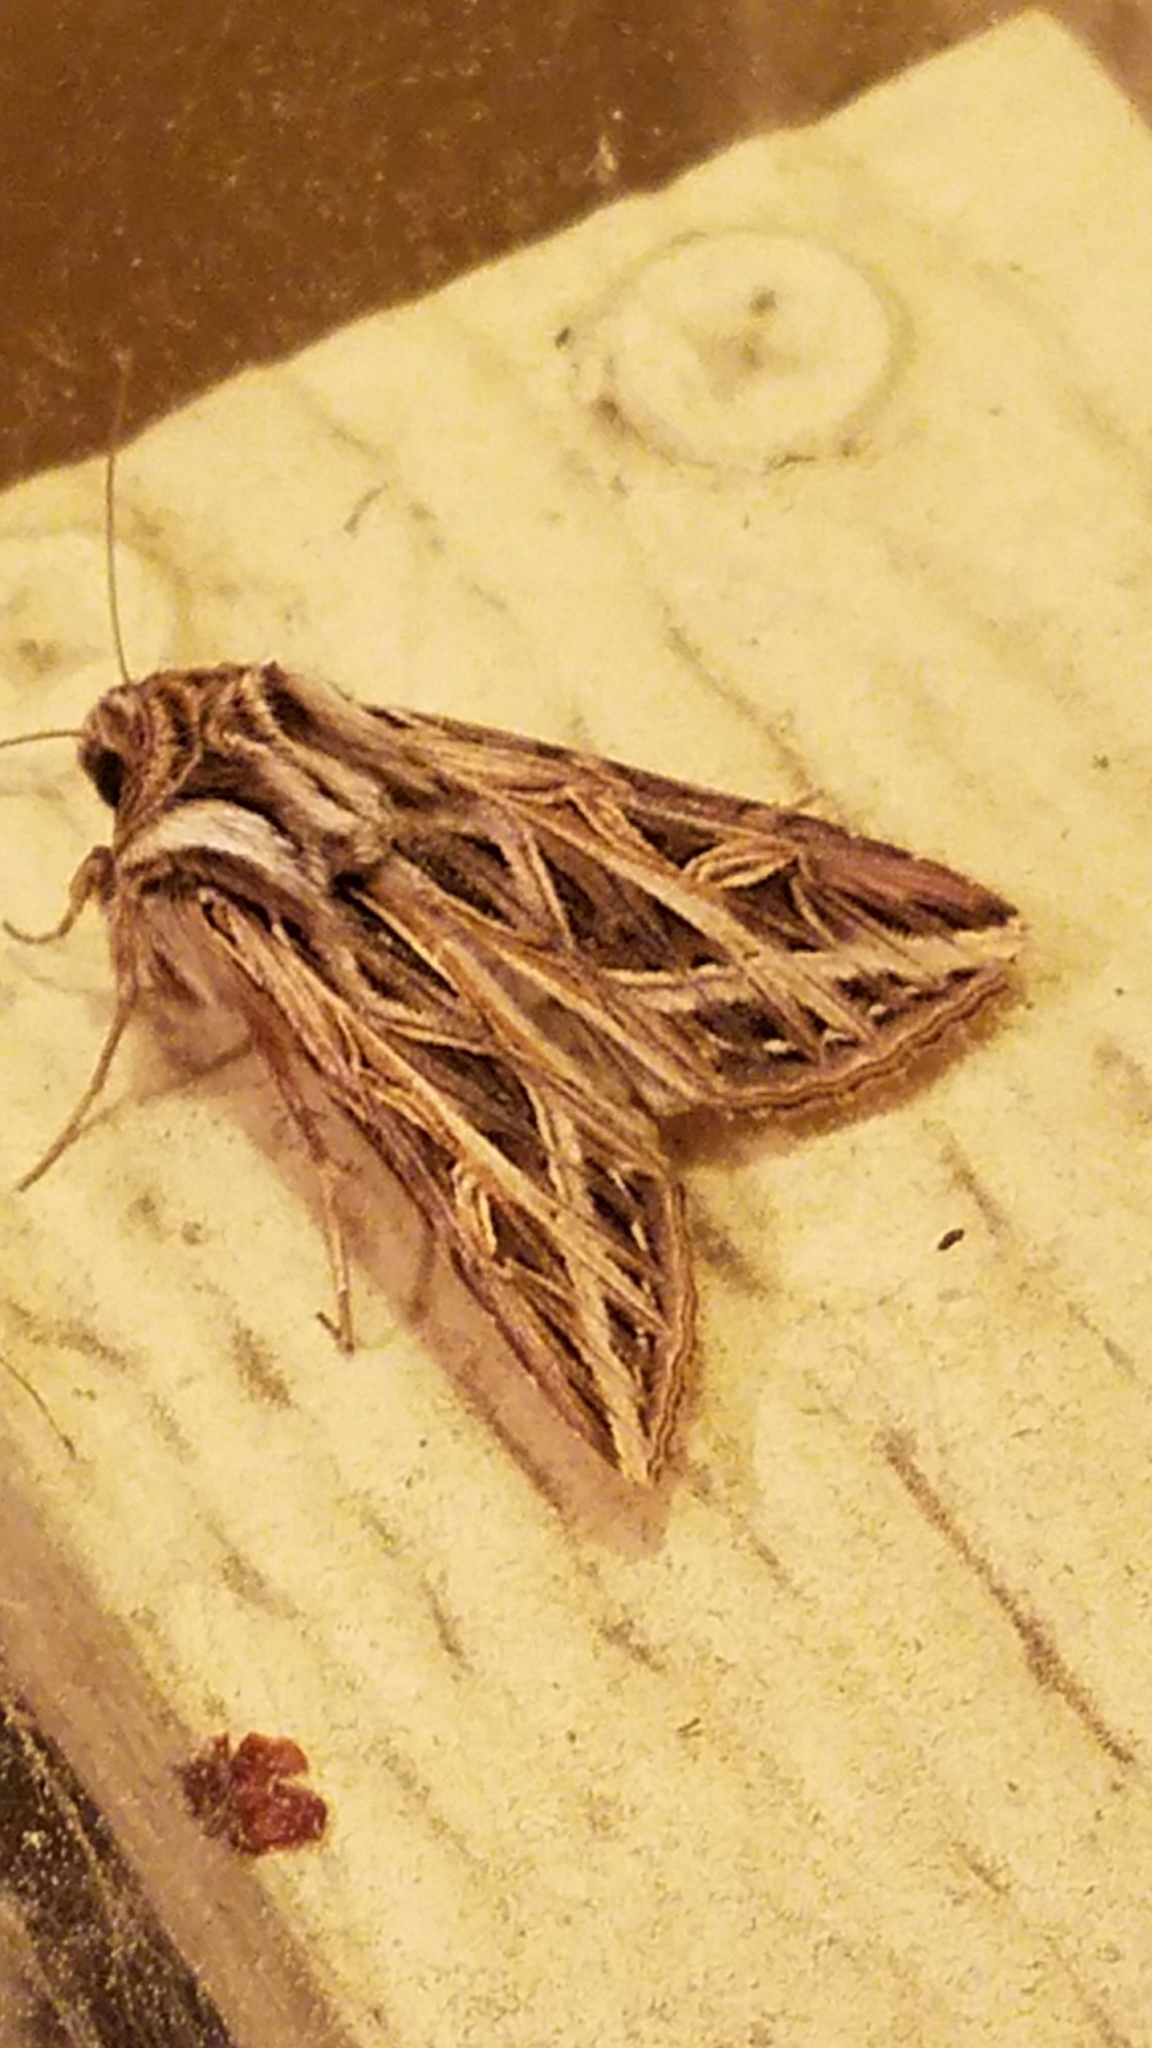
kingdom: Animalia
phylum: Arthropoda
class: Insecta
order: Lepidoptera
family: Noctuidae
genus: Dargida
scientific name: Dargida procinctus
